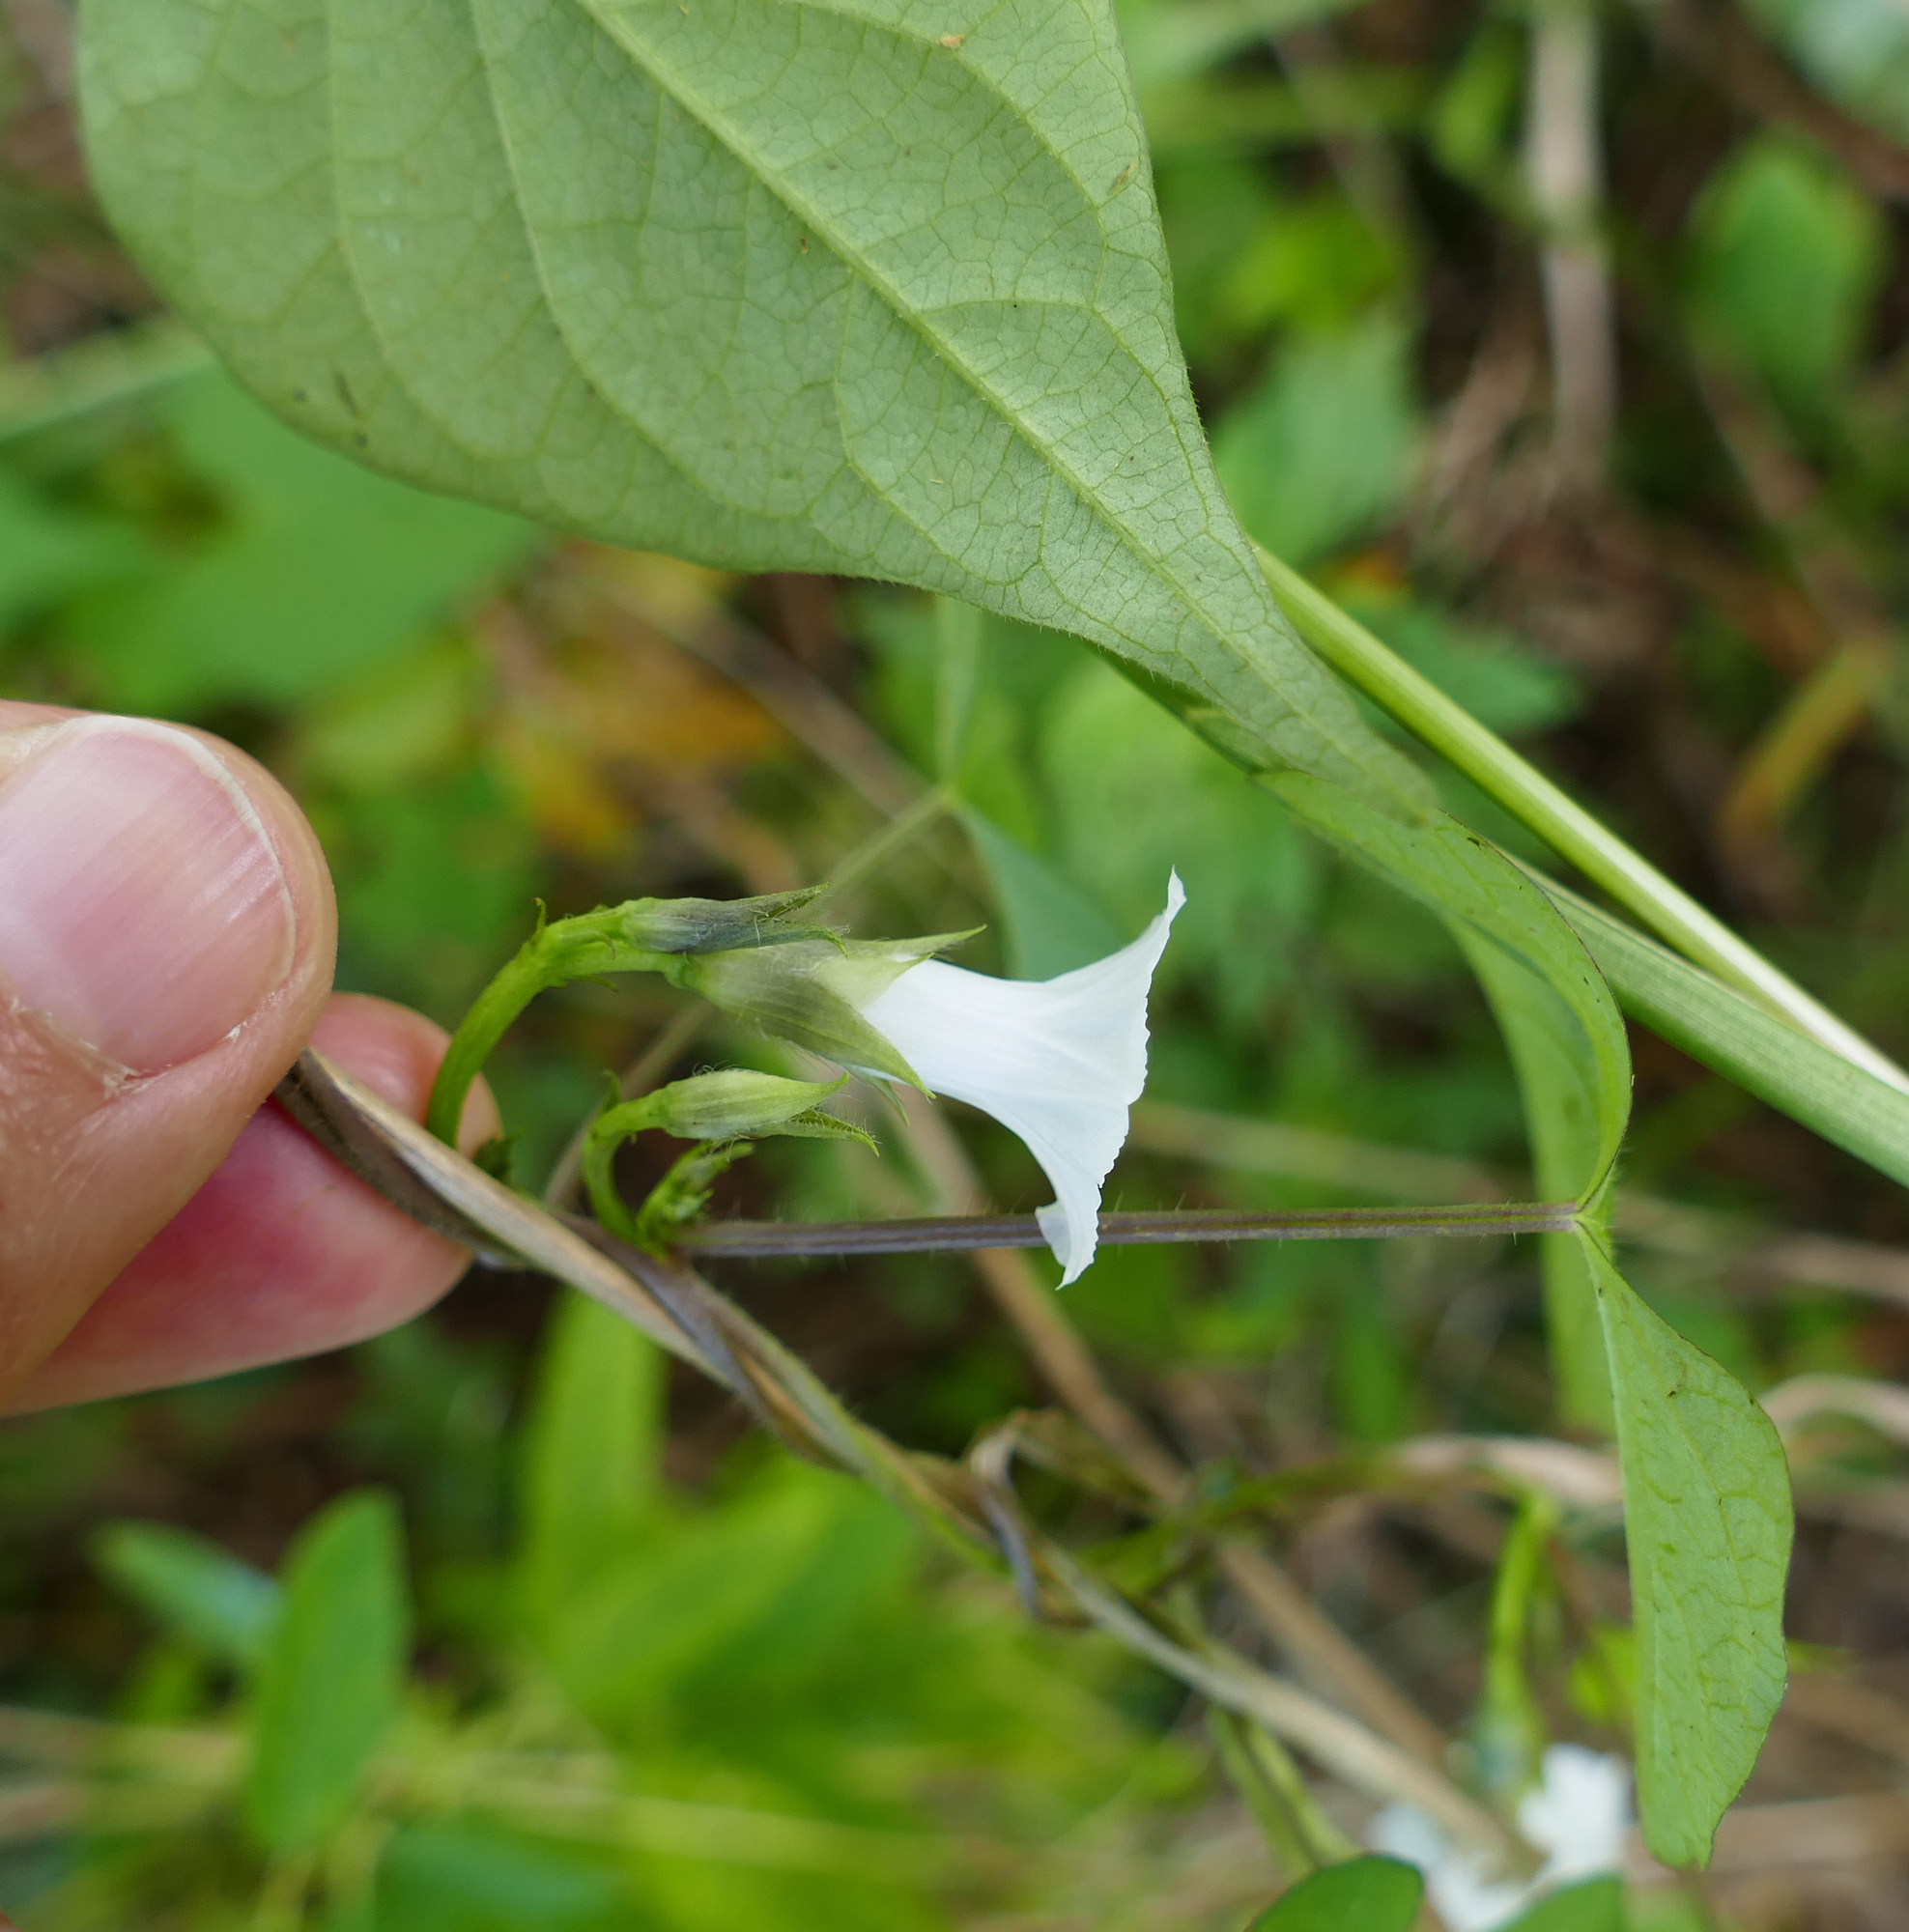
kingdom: Plantae
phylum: Tracheophyta
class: Magnoliopsida
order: Solanales
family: Convolvulaceae
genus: Ipomoea
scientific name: Ipomoea lacunosa
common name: White morning-glory
